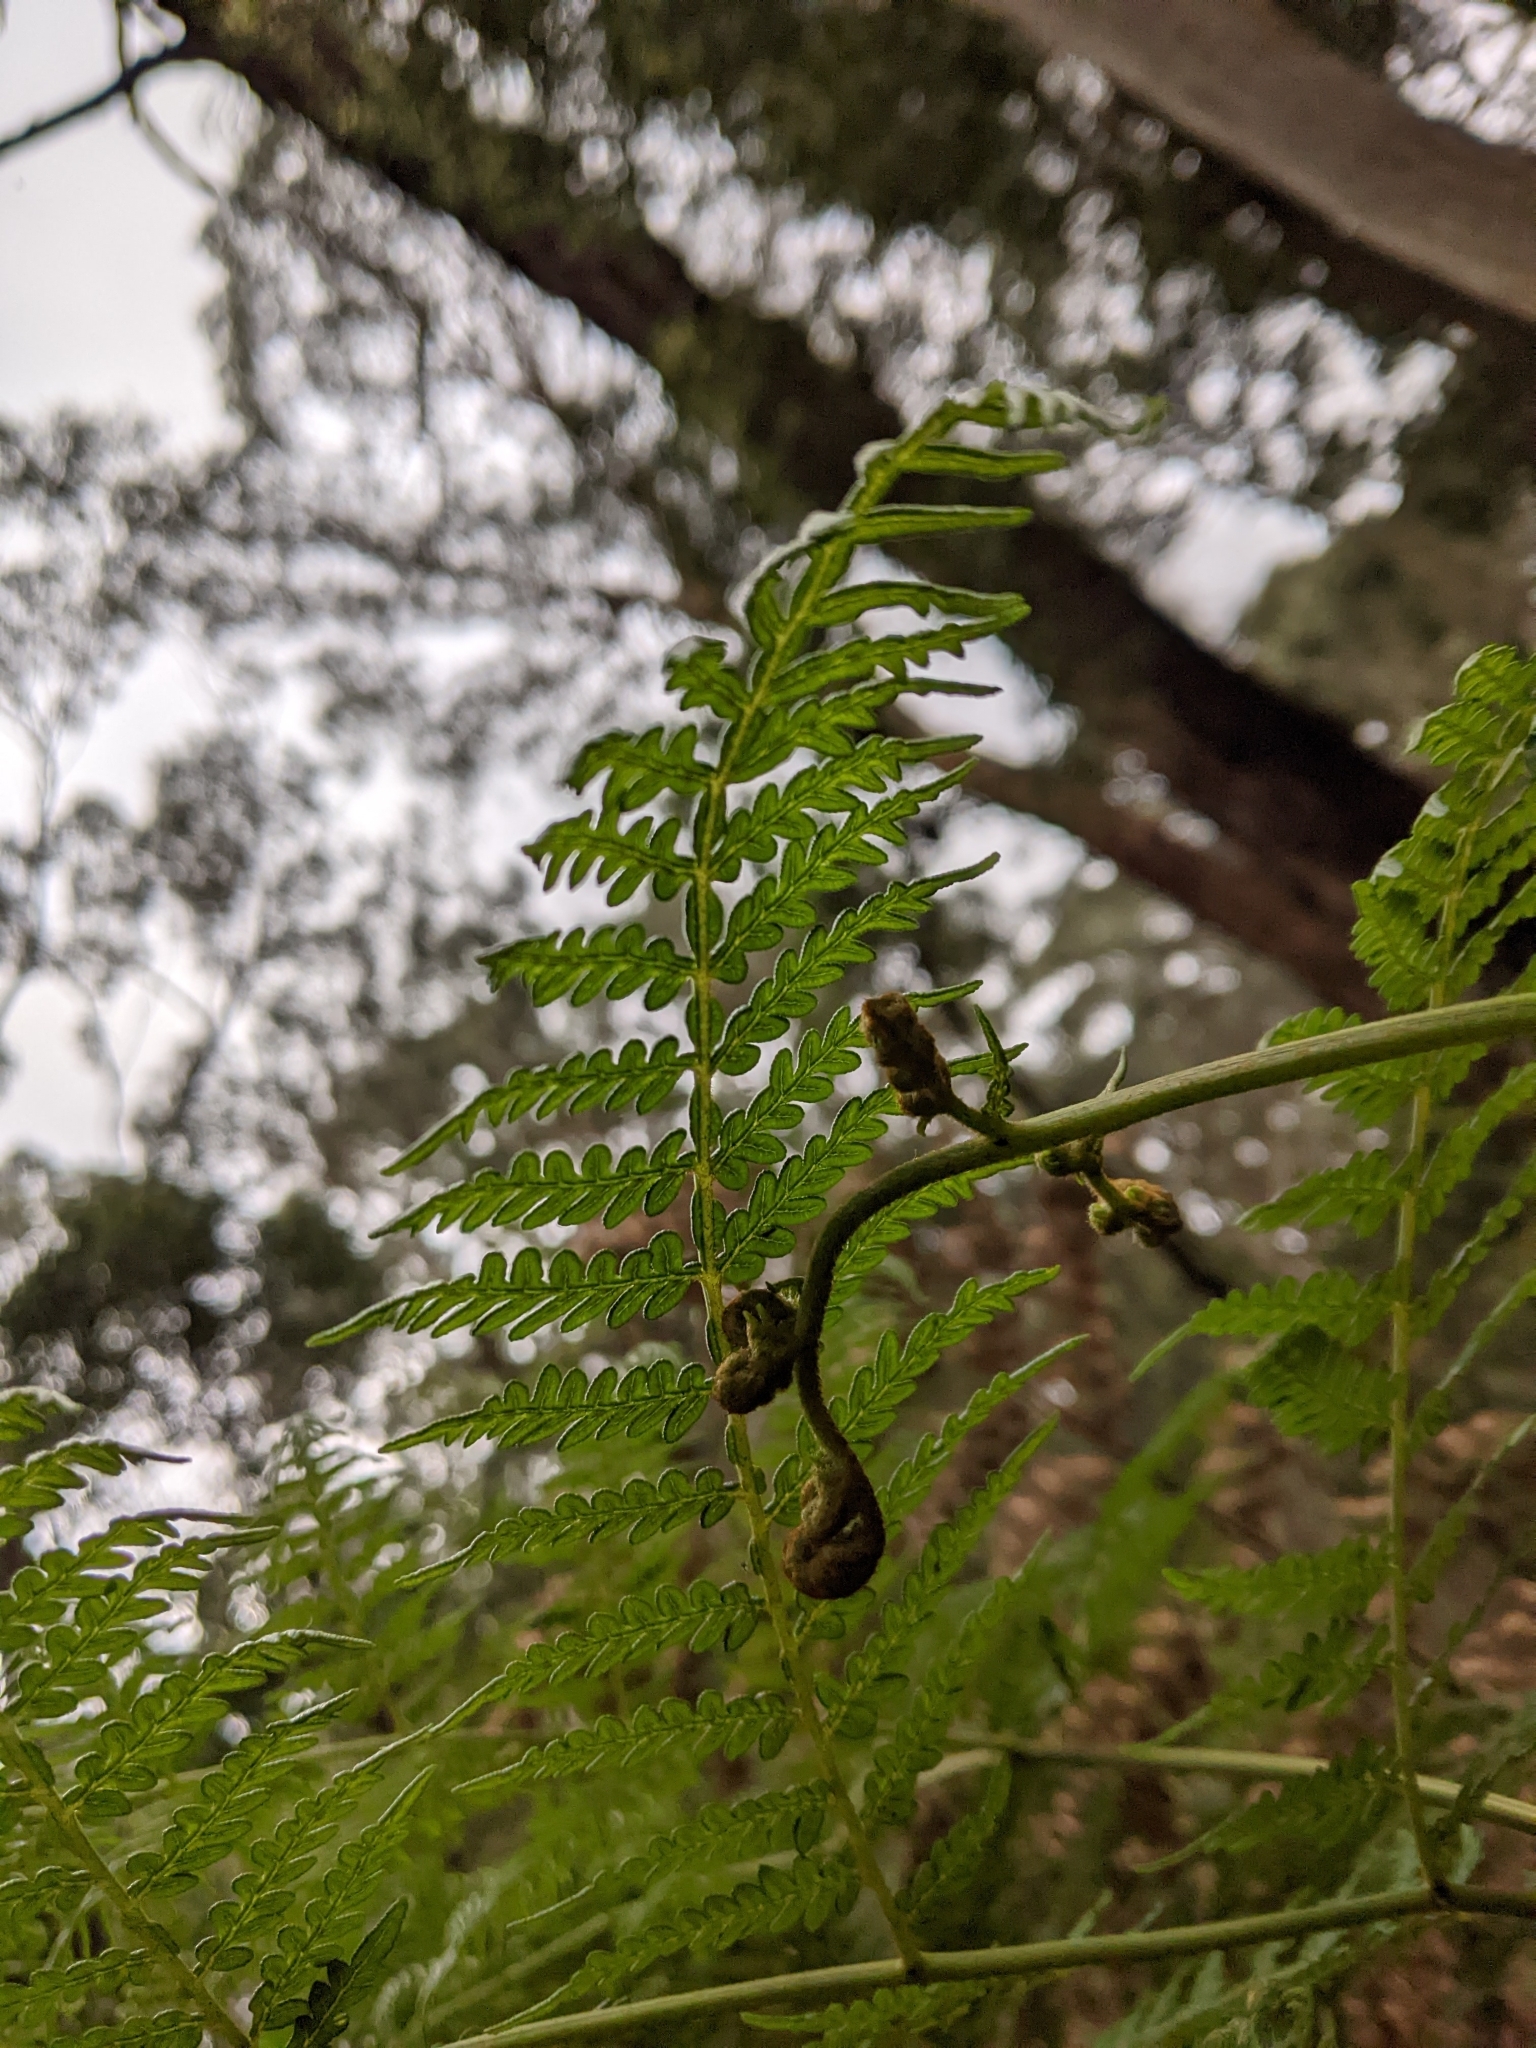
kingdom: Plantae
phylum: Tracheophyta
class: Polypodiopsida
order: Polypodiales
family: Dennstaedtiaceae
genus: Pteridium
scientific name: Pteridium esculentum
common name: Bracken fern
